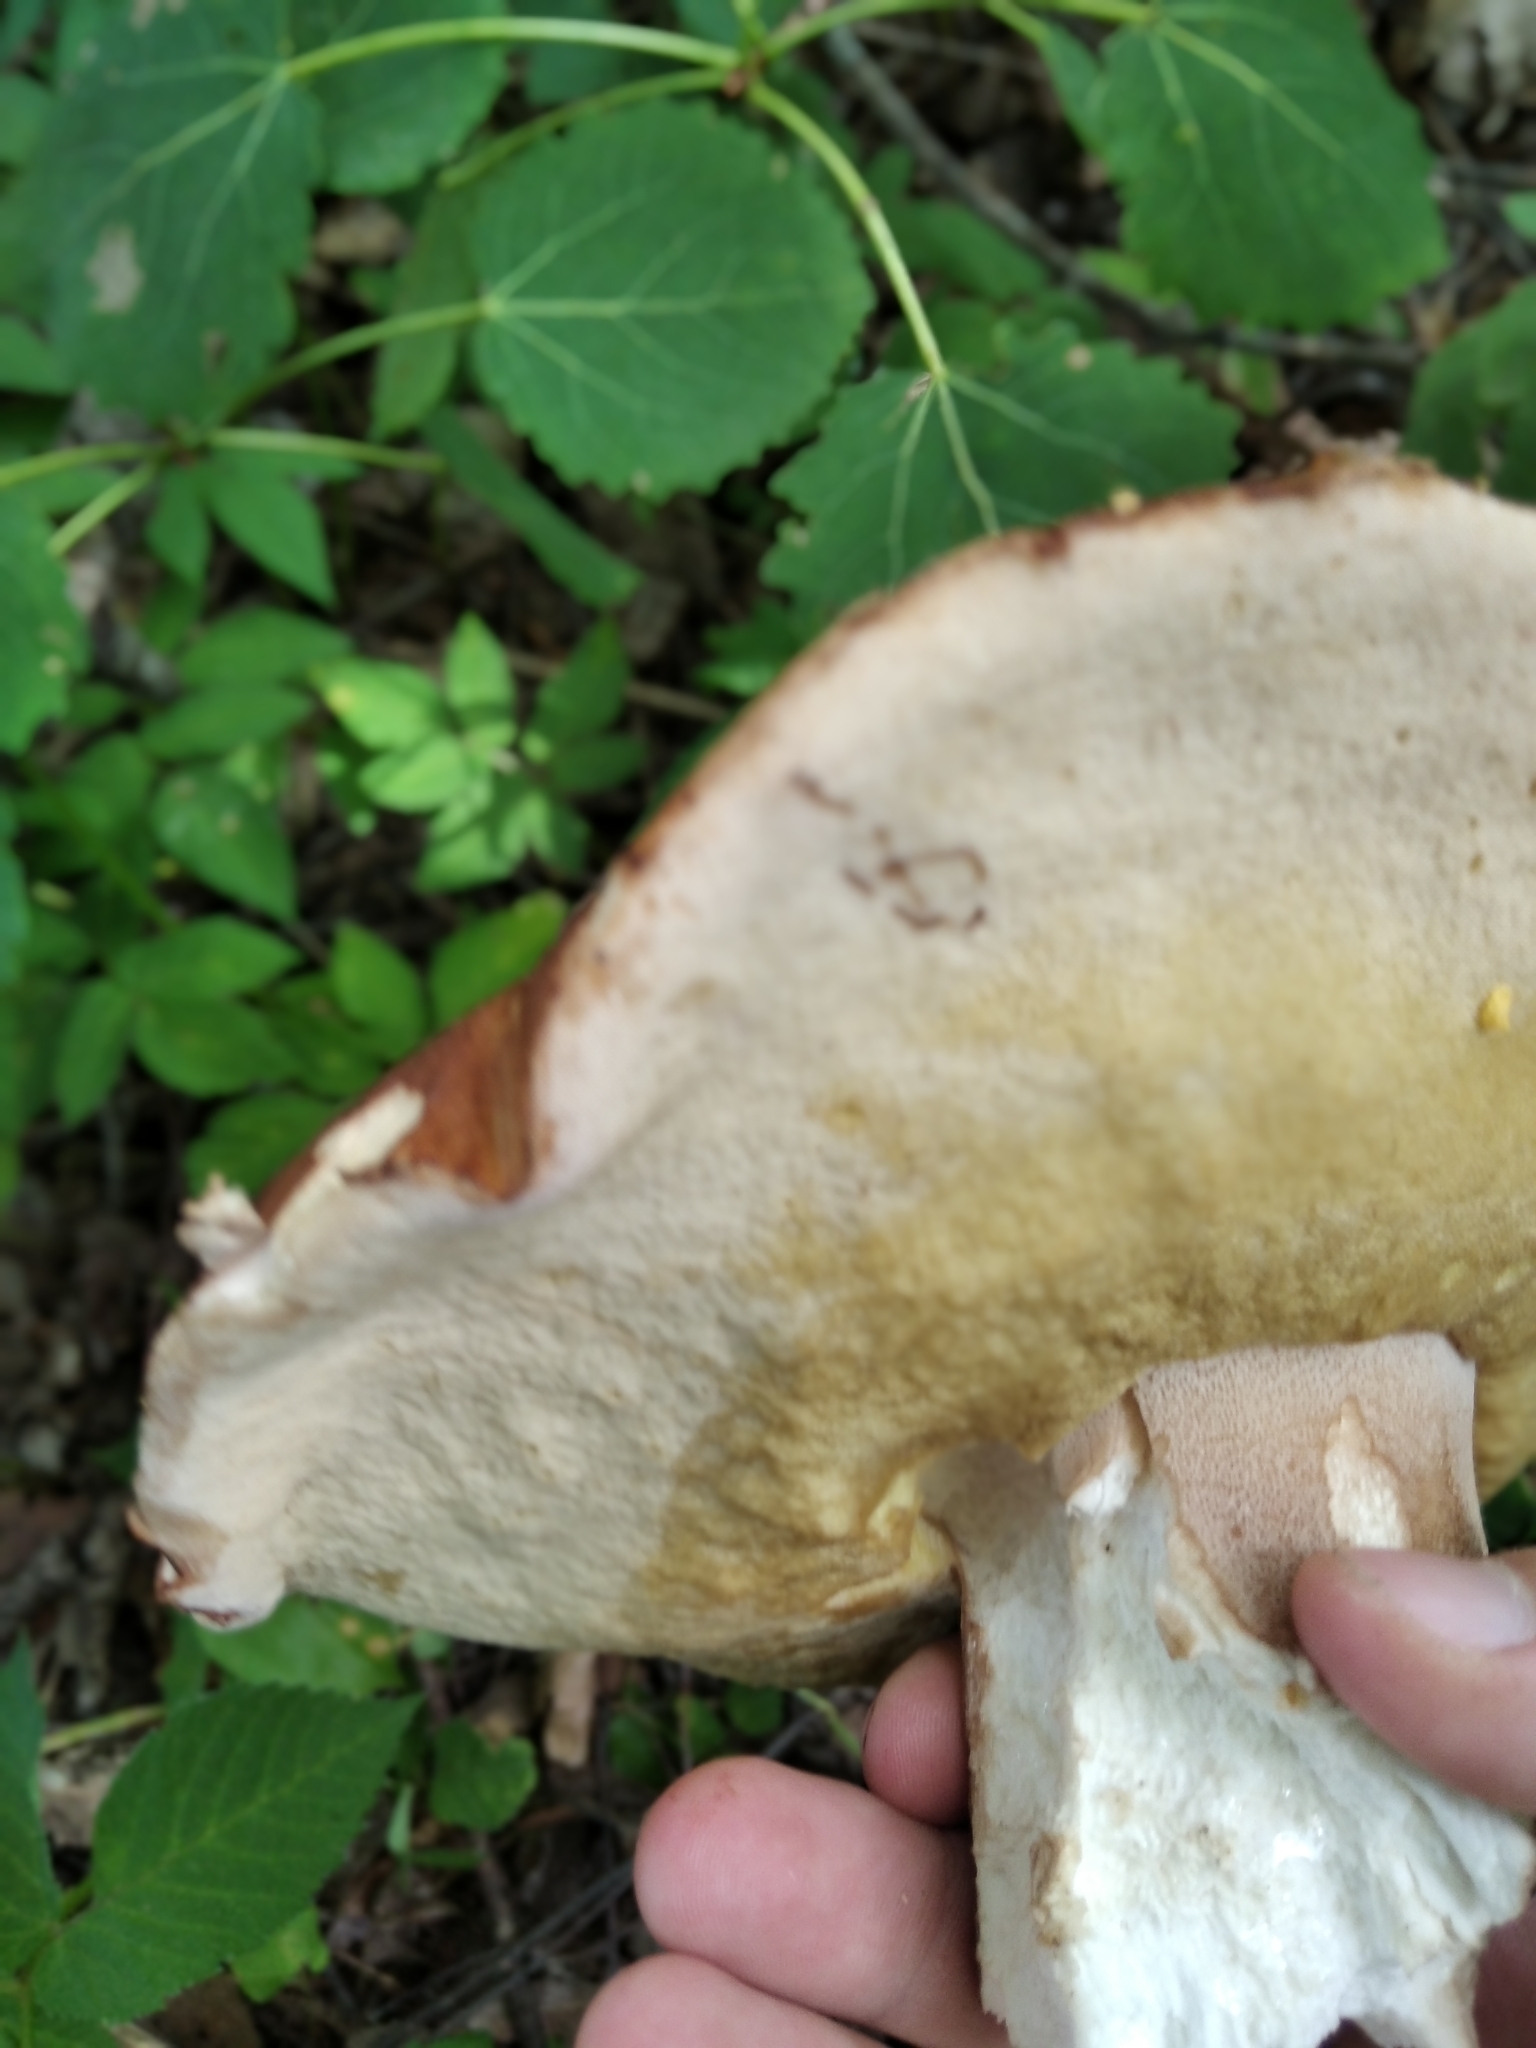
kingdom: Fungi
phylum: Basidiomycota
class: Agaricomycetes
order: Boletales
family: Boletaceae
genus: Boletus
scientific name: Boletus reticulatus
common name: Summer bolete
